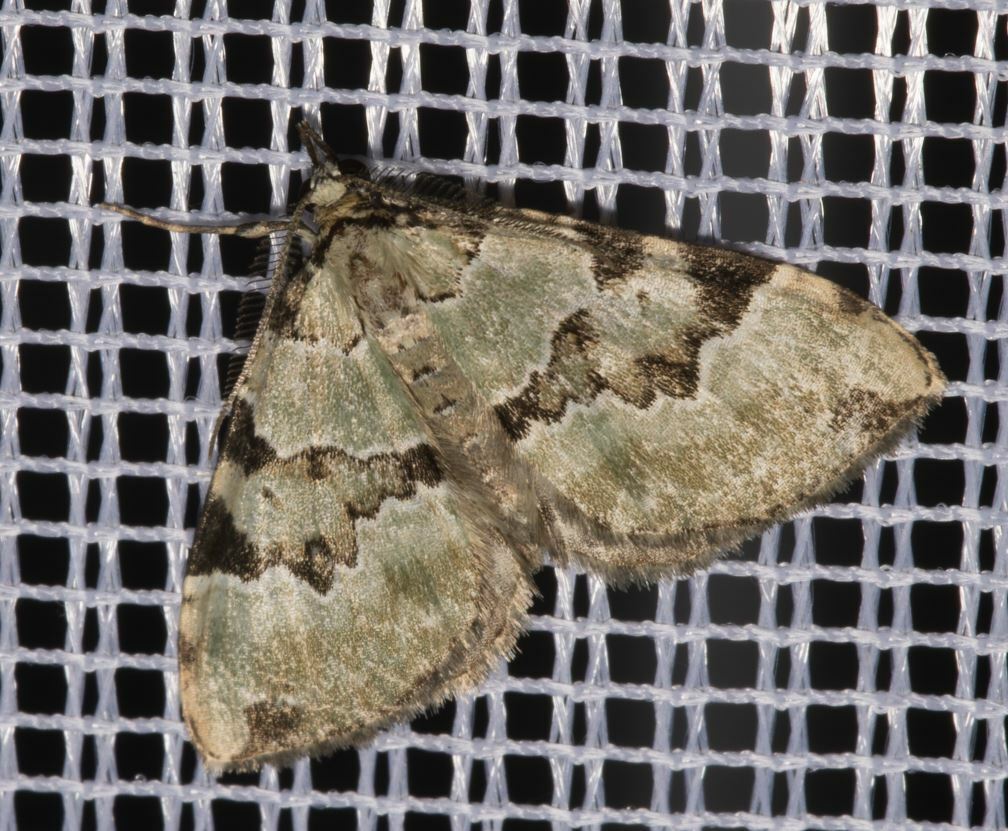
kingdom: Animalia
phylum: Arthropoda
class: Insecta
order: Lepidoptera
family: Geometridae
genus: Colostygia
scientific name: Colostygia pectinataria
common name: Green carpet
